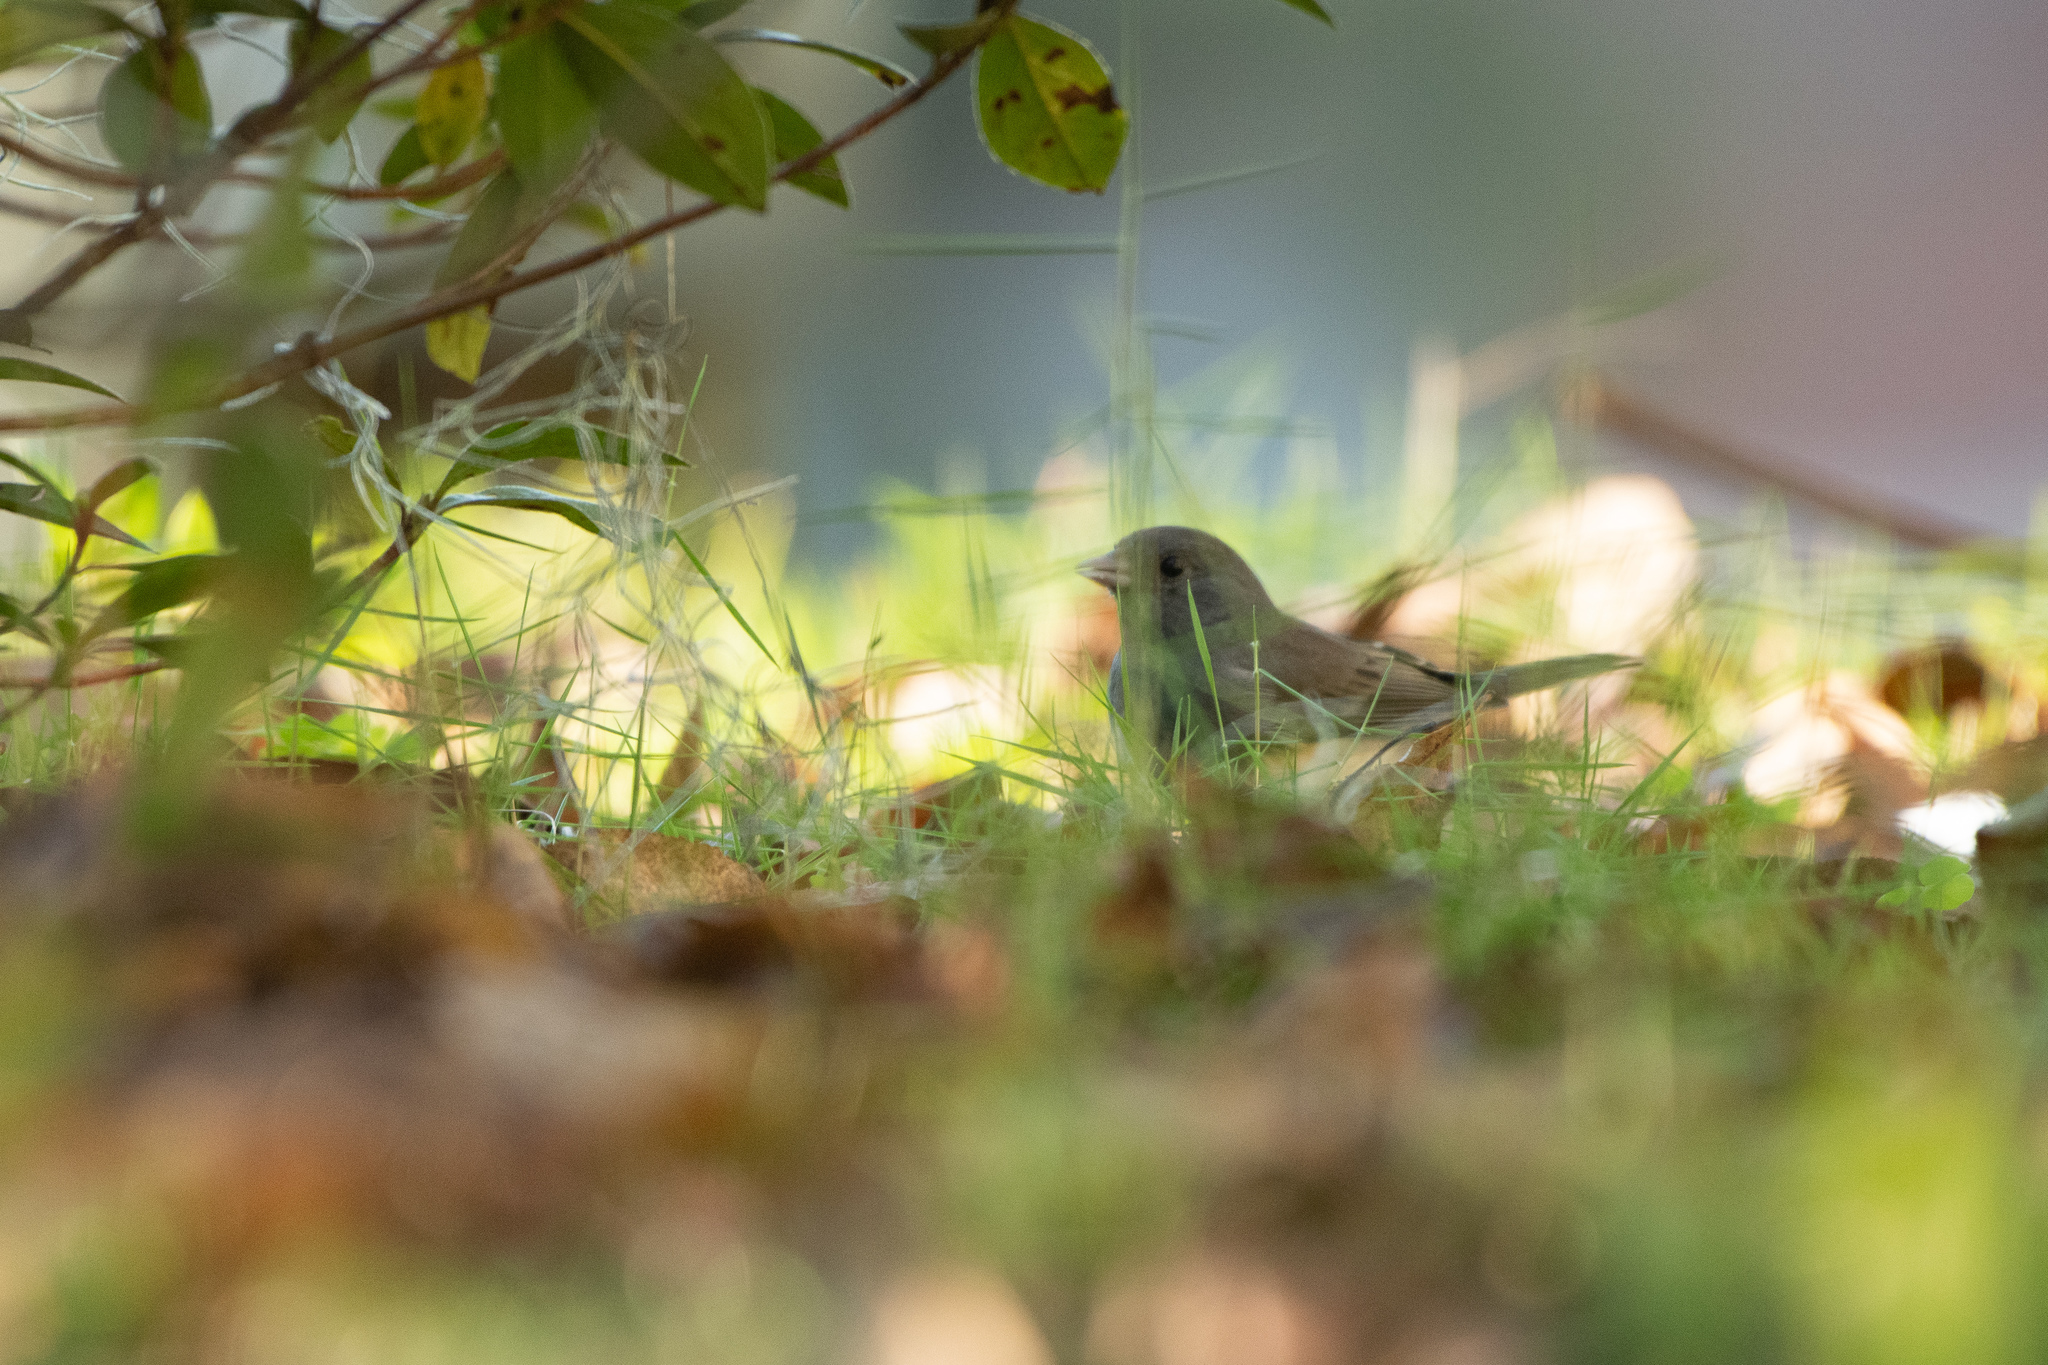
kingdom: Animalia
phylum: Chordata
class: Aves
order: Passeriformes
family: Passerellidae
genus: Junco
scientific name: Junco hyemalis
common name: Dark-eyed junco
